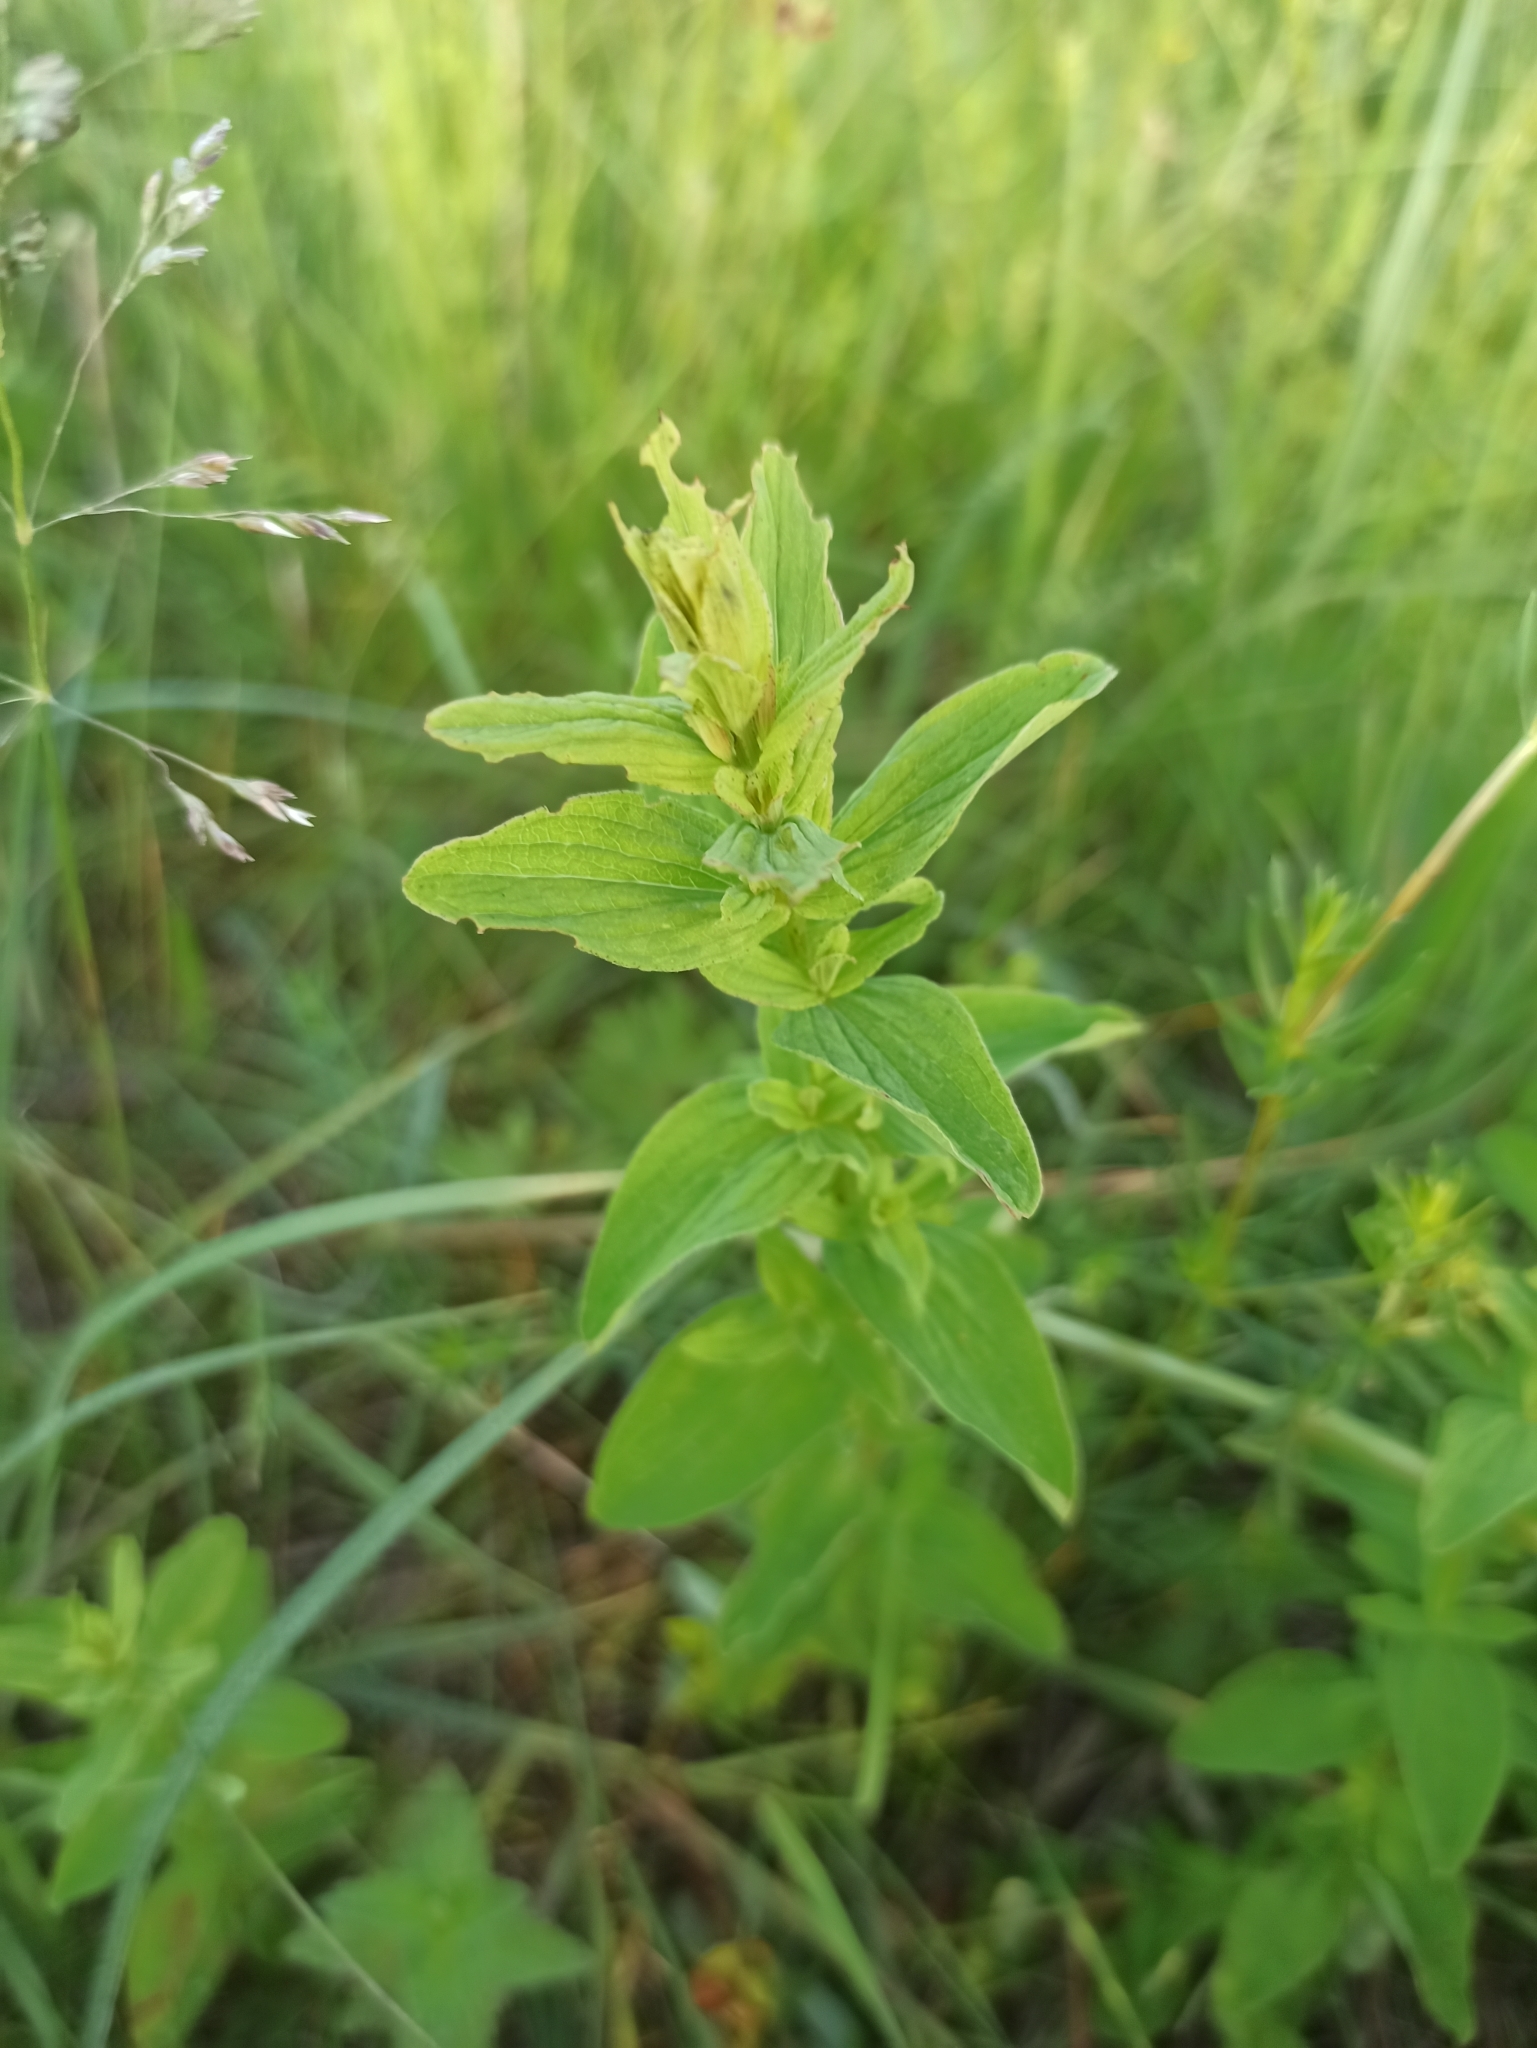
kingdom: Plantae
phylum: Tracheophyta
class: Magnoliopsida
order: Malpighiales
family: Hypericaceae
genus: Hypericum
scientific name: Hypericum maculatum
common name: Imperforate st. john's-wort
